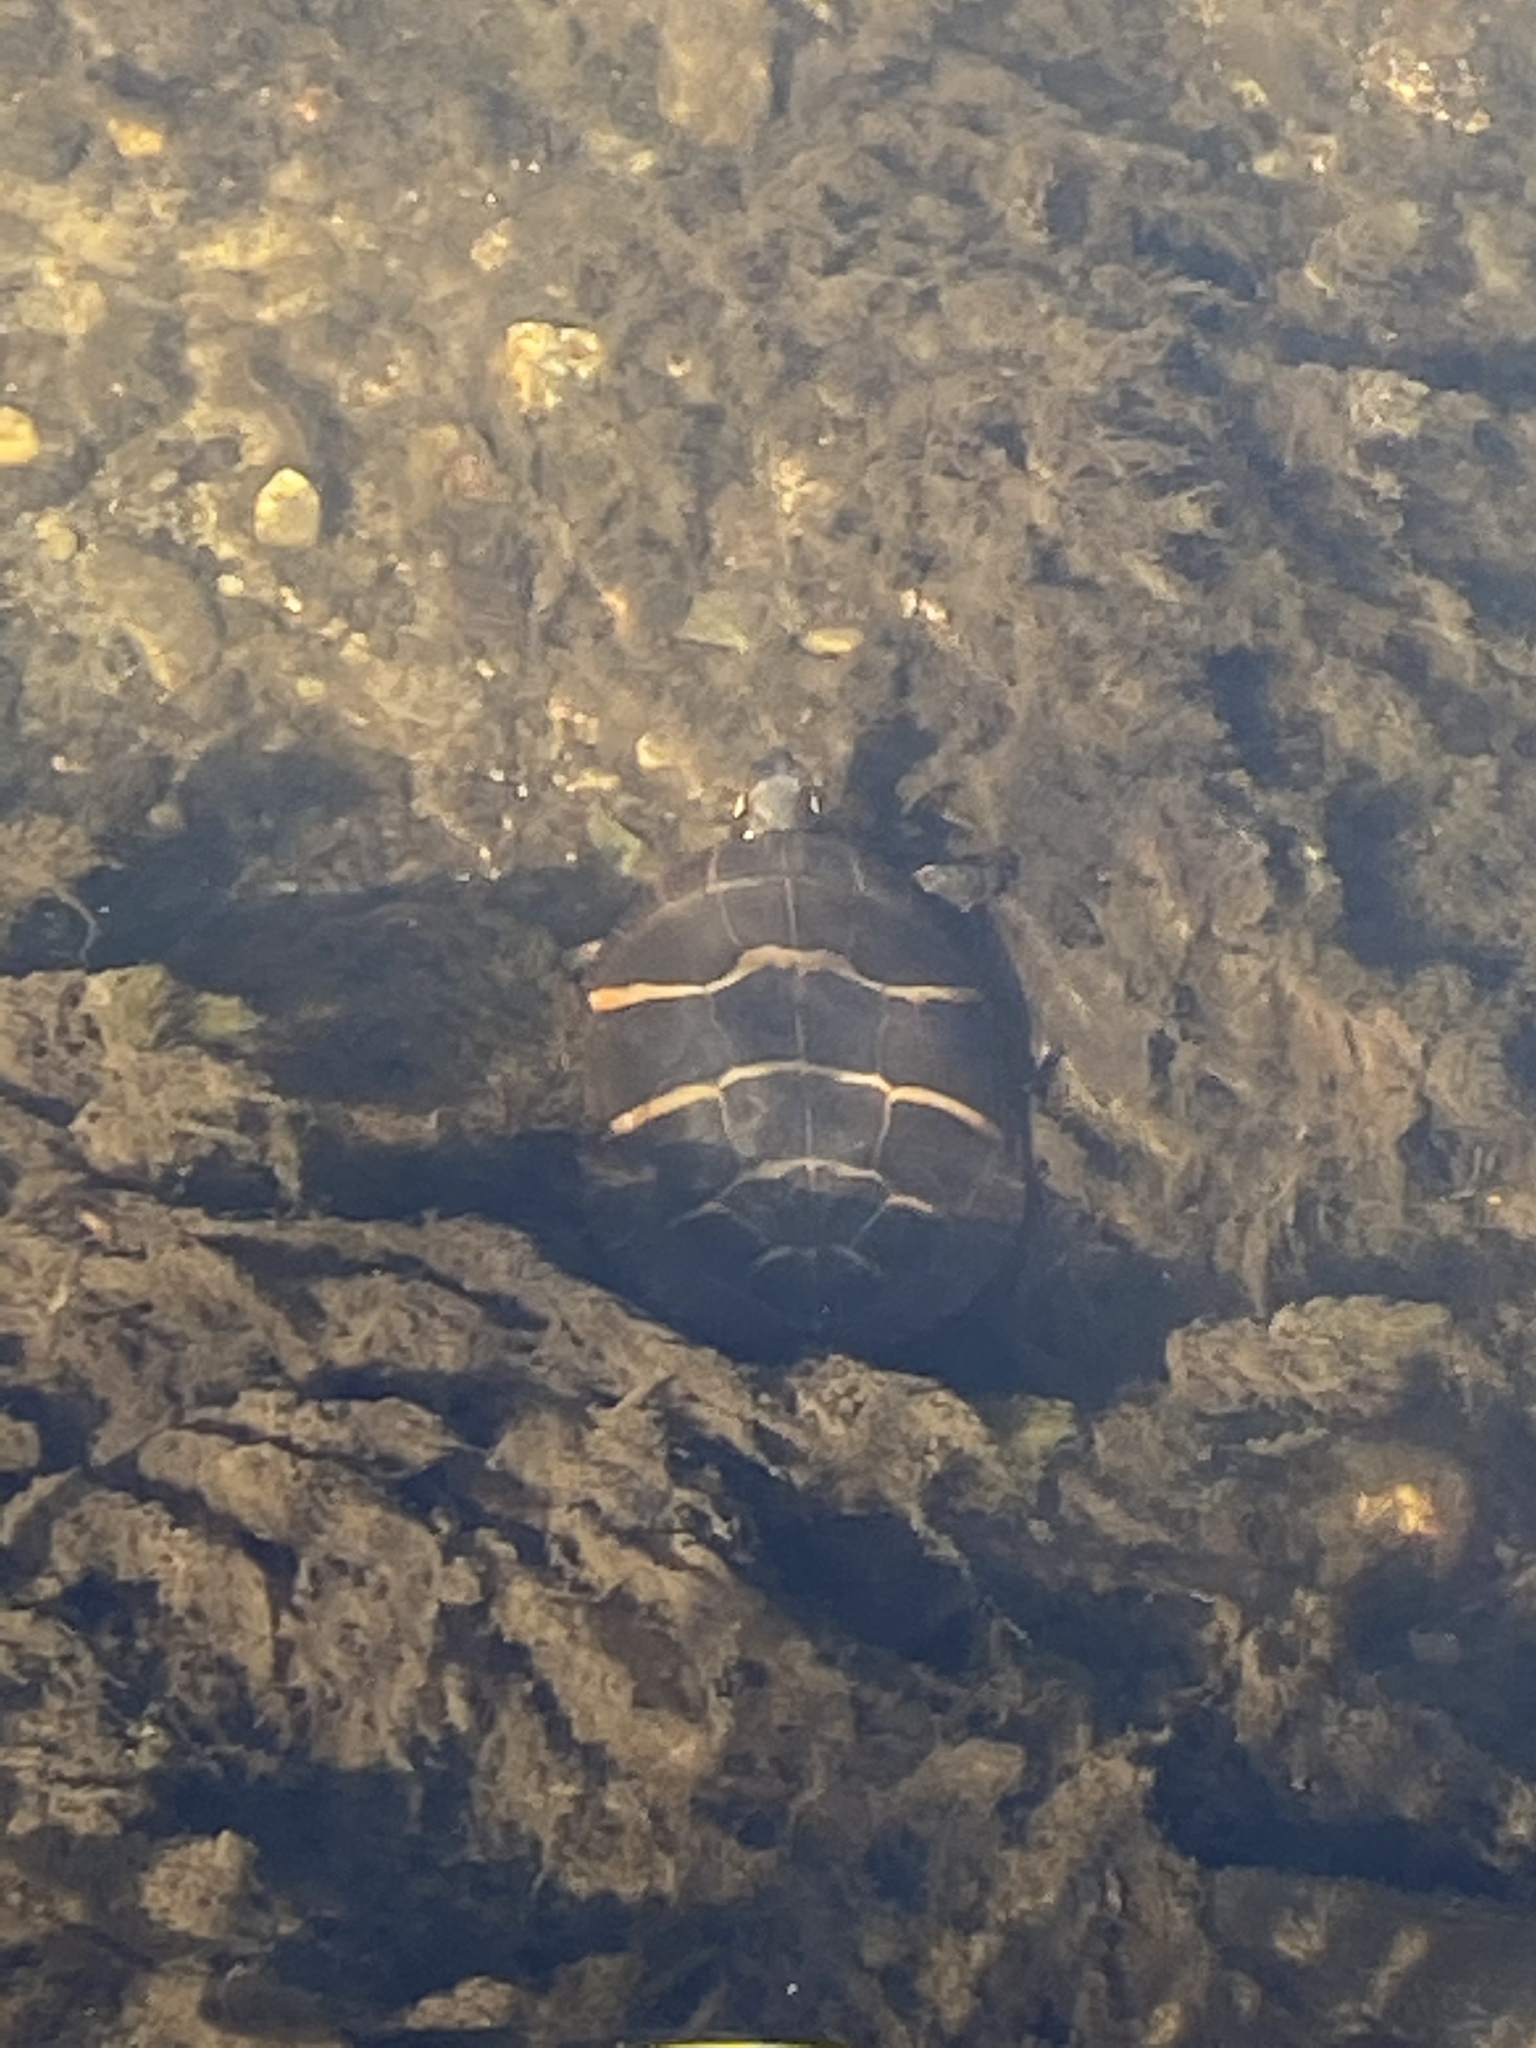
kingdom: Animalia
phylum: Chordata
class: Testudines
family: Emydidae
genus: Chrysemys
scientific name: Chrysemys picta
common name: Painted turtle
